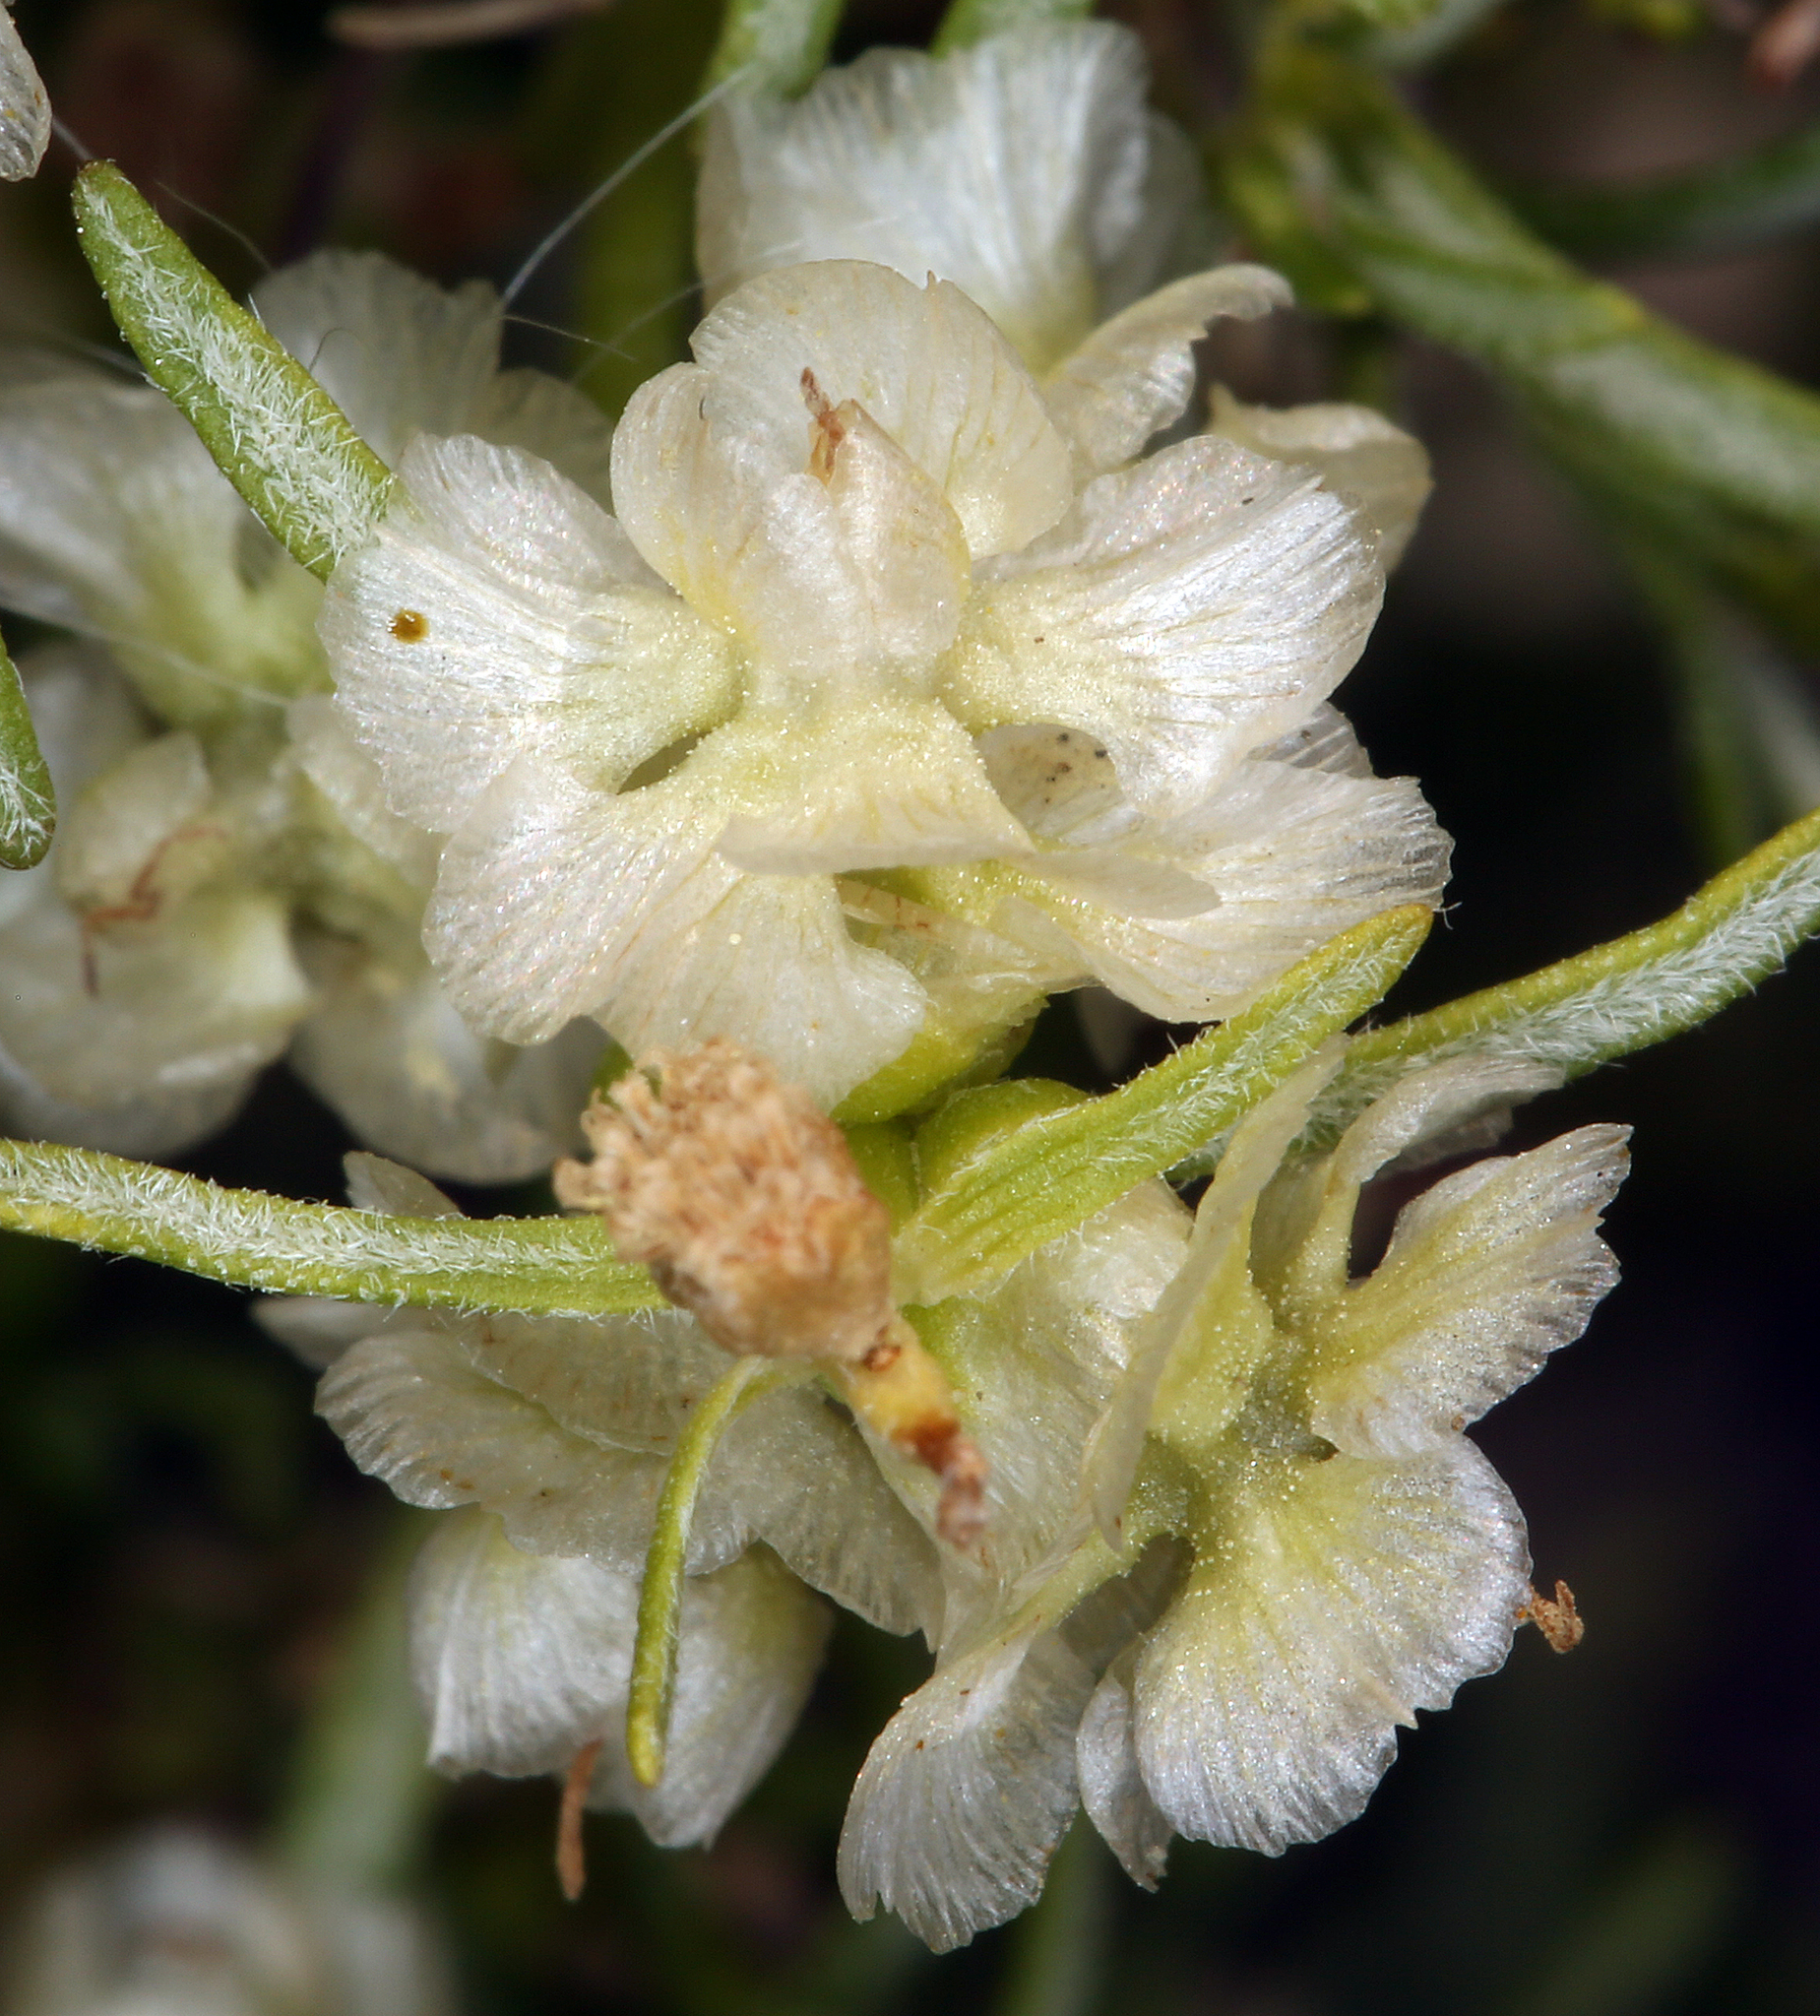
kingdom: Plantae
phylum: Tracheophyta
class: Magnoliopsida
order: Asterales
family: Asteraceae
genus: Ambrosia
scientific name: Ambrosia salsola
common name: Burrobrush
